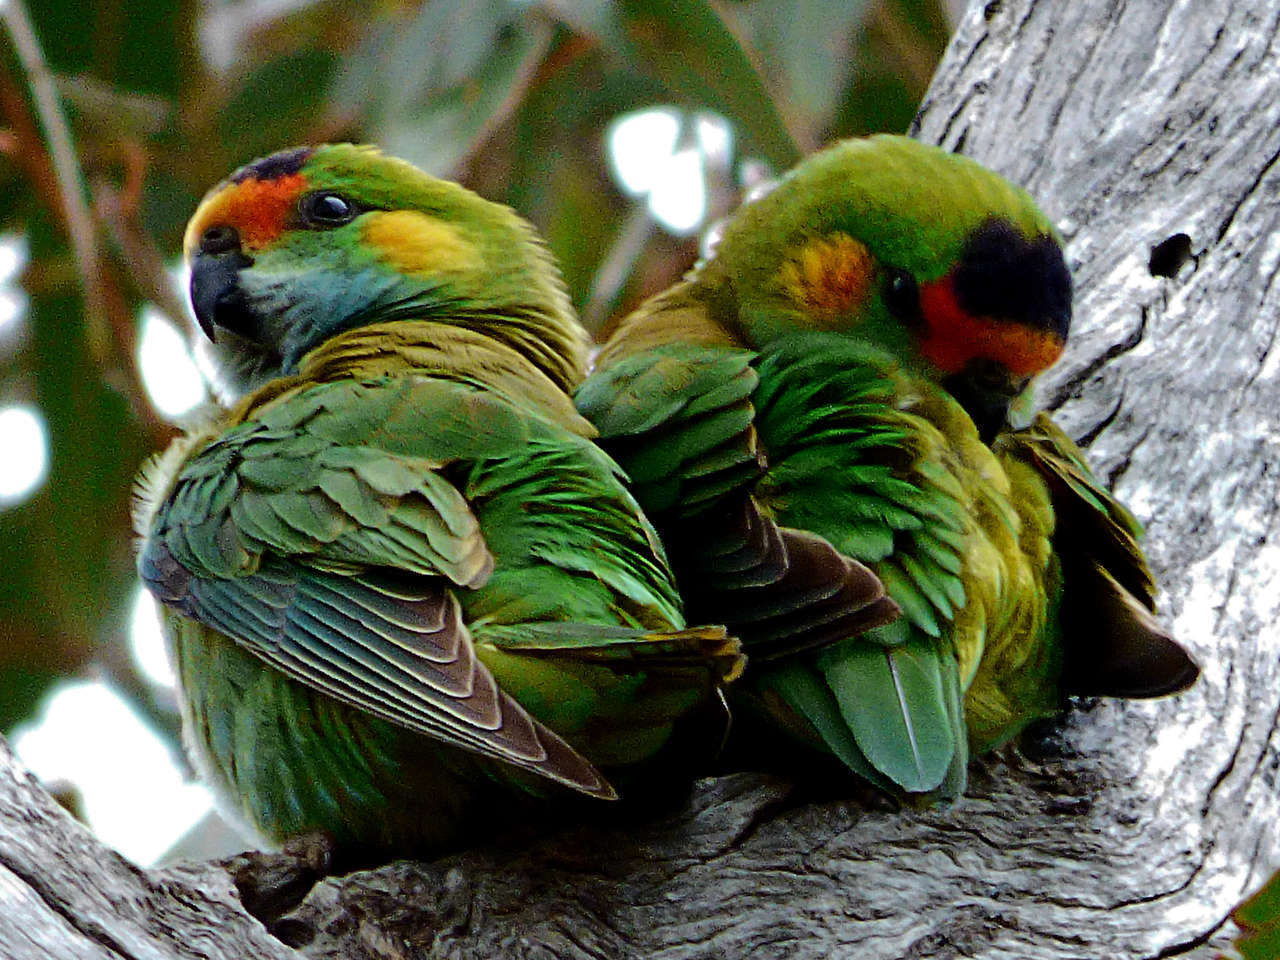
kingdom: Animalia
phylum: Chordata
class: Aves
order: Psittaciformes
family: Psittaculidae
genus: Parvipsitta
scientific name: Parvipsitta porphyrocephala
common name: Purple-crowned lorikeet
